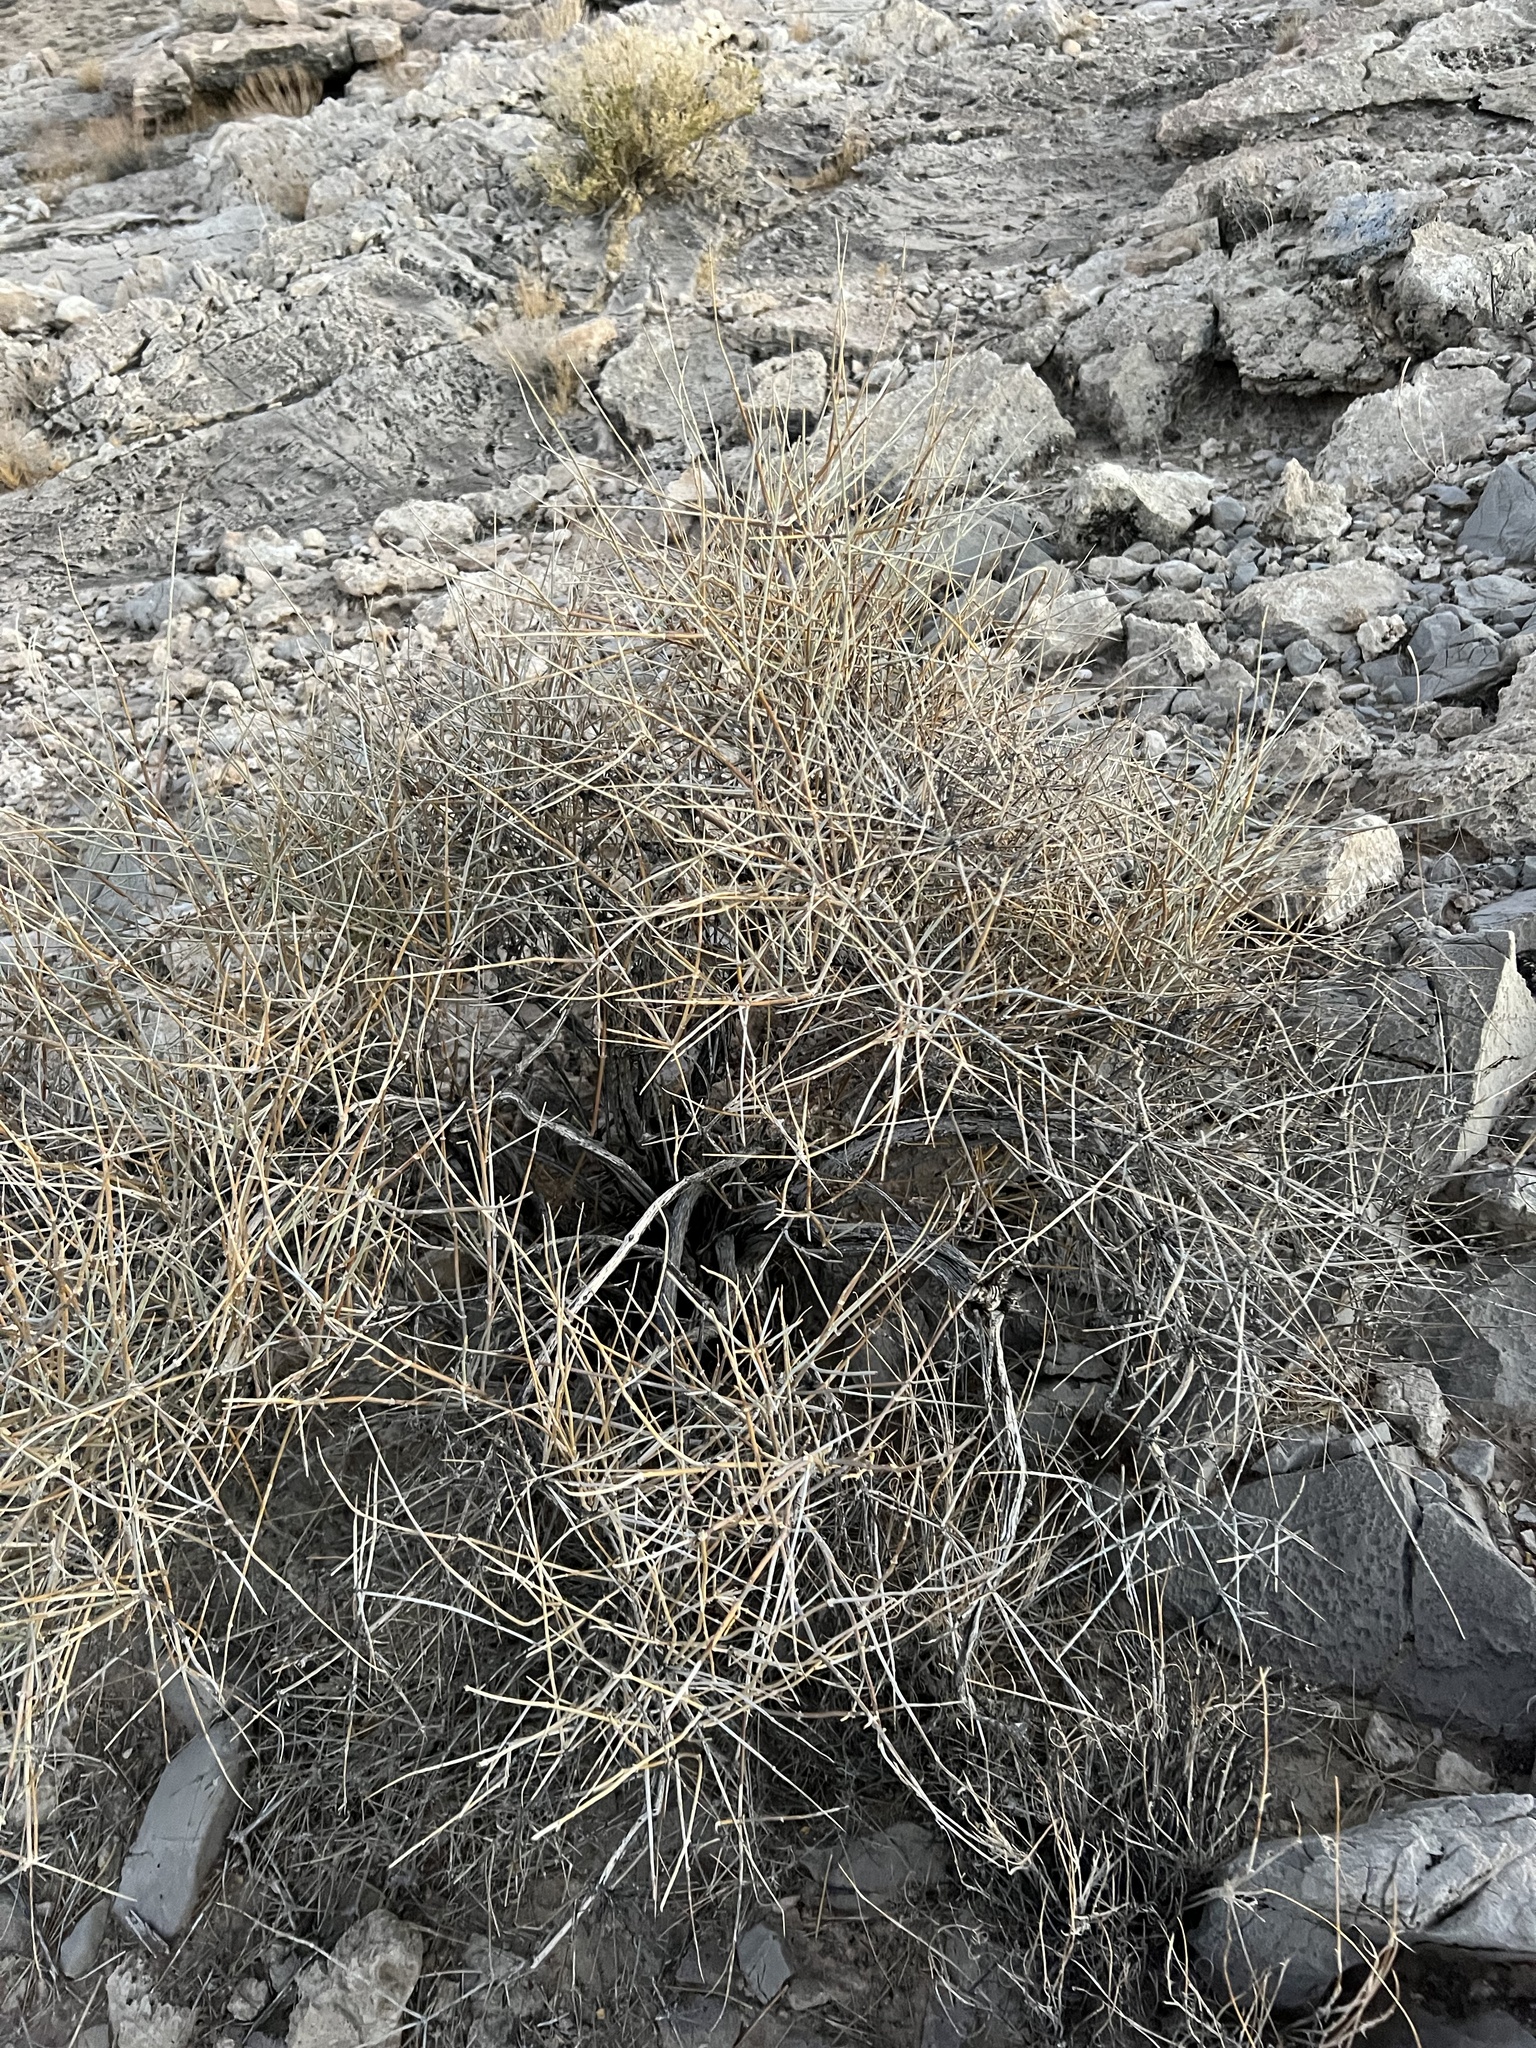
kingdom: Plantae
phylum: Tracheophyta
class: Gnetopsida
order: Ephedrales
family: Ephedraceae
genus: Ephedra
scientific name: Ephedra nevadensis
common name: Gray ephedra
